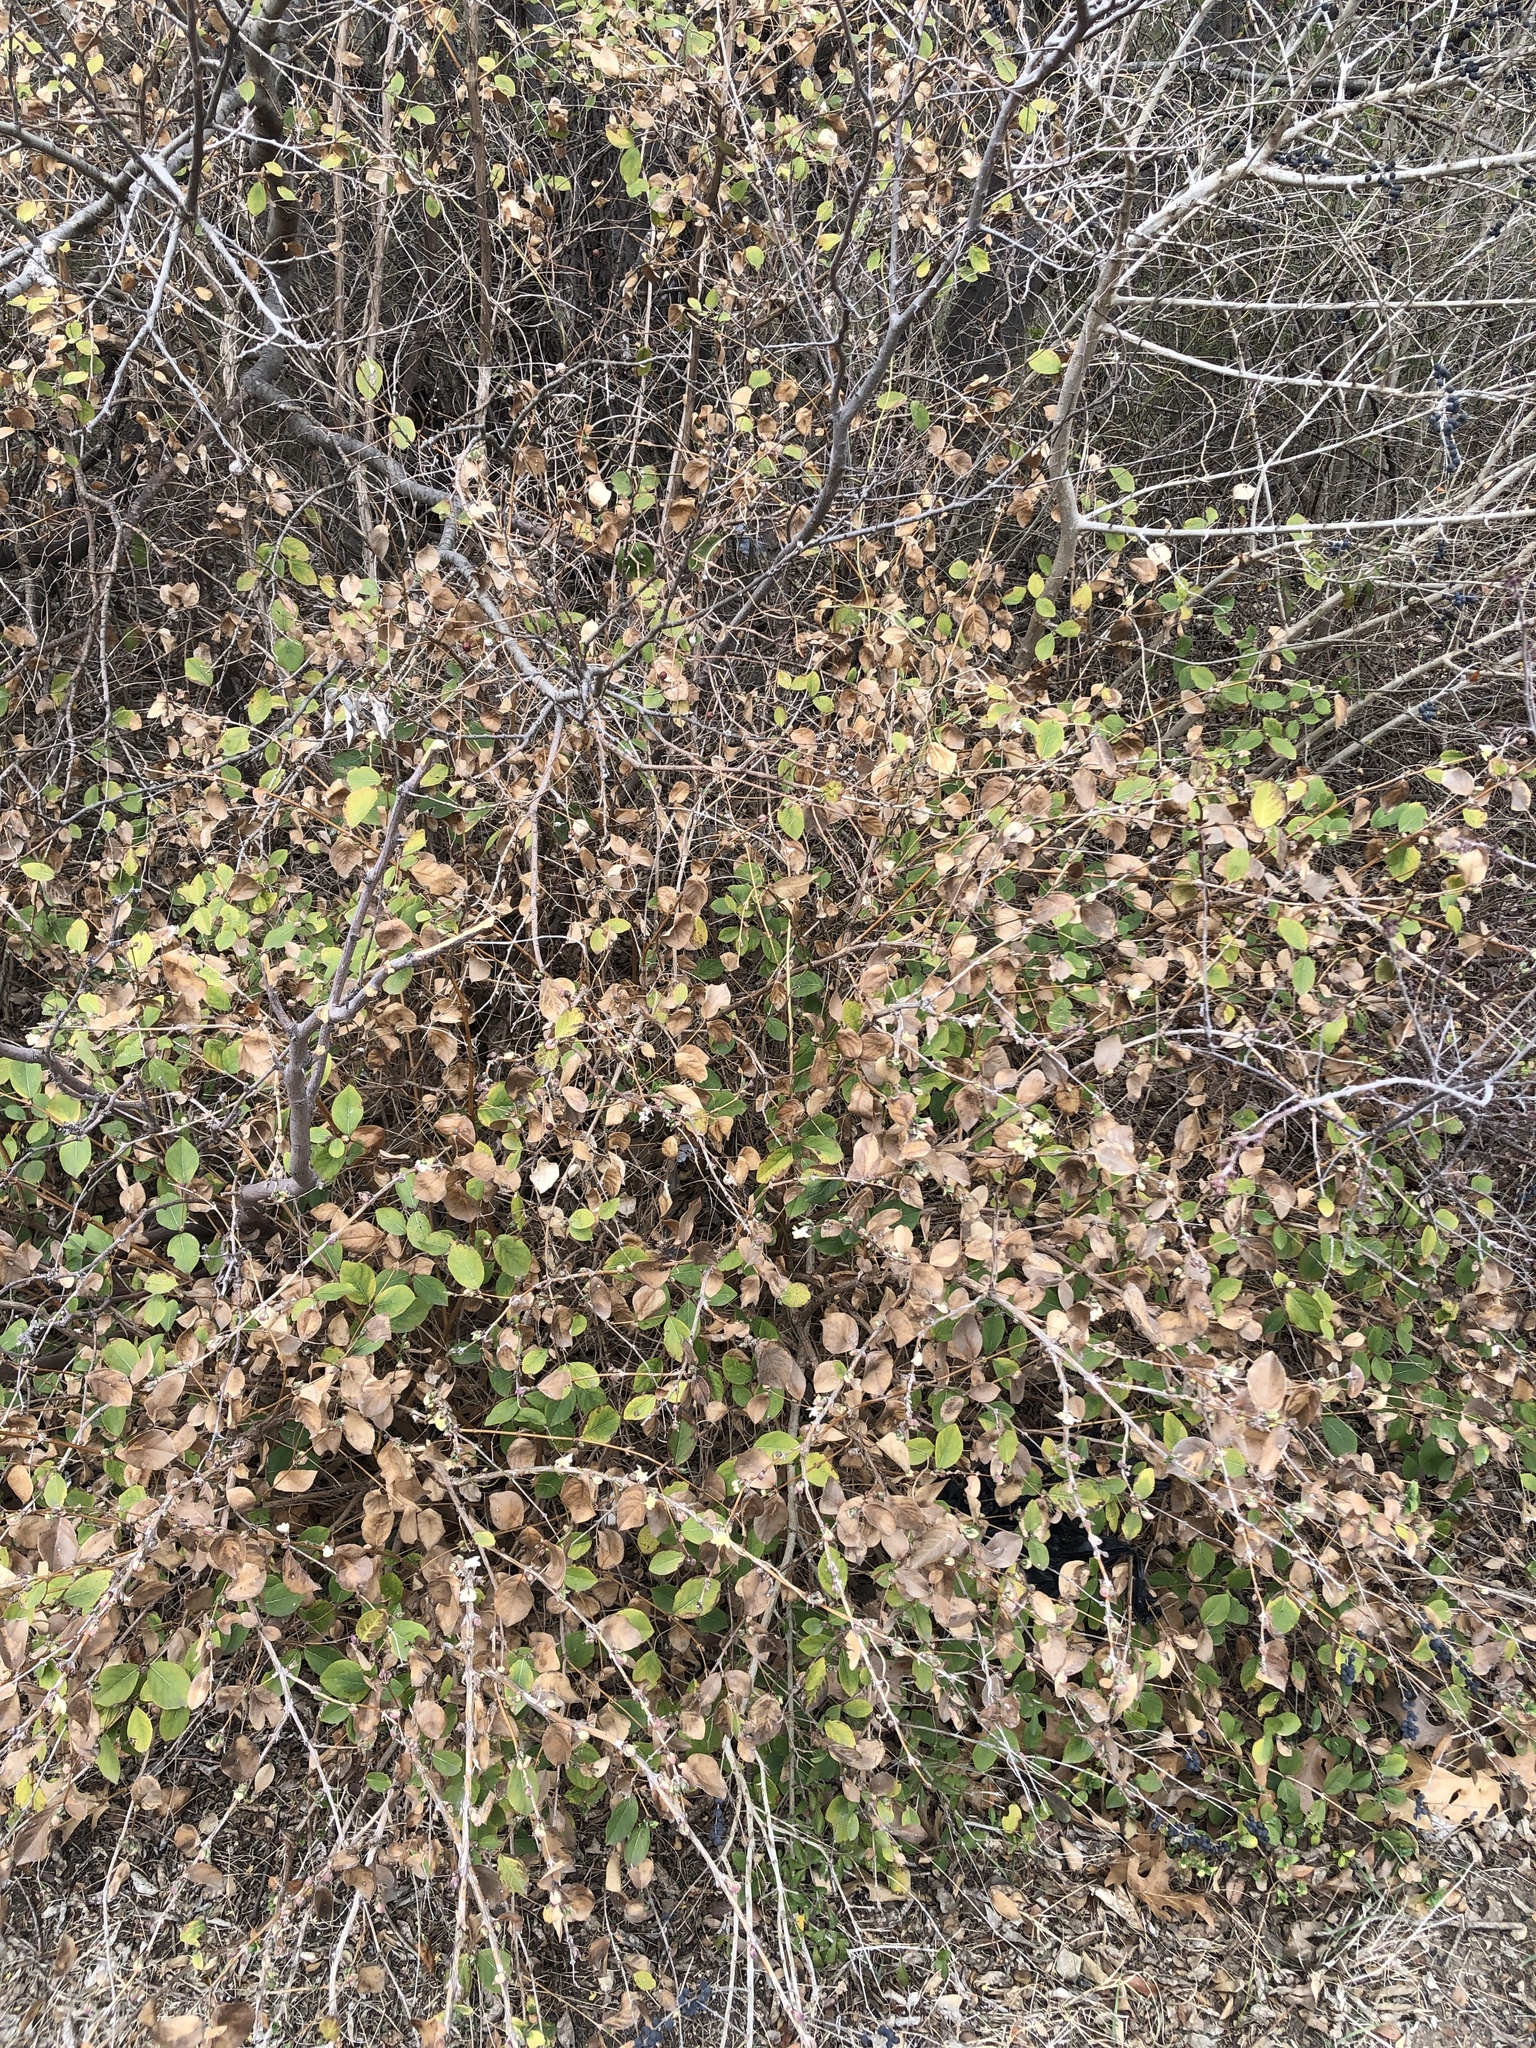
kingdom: Plantae
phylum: Tracheophyta
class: Magnoliopsida
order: Dipsacales
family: Caprifoliaceae
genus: Lonicera
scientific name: Lonicera fragrantissima
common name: Fragrant honeysuckle
